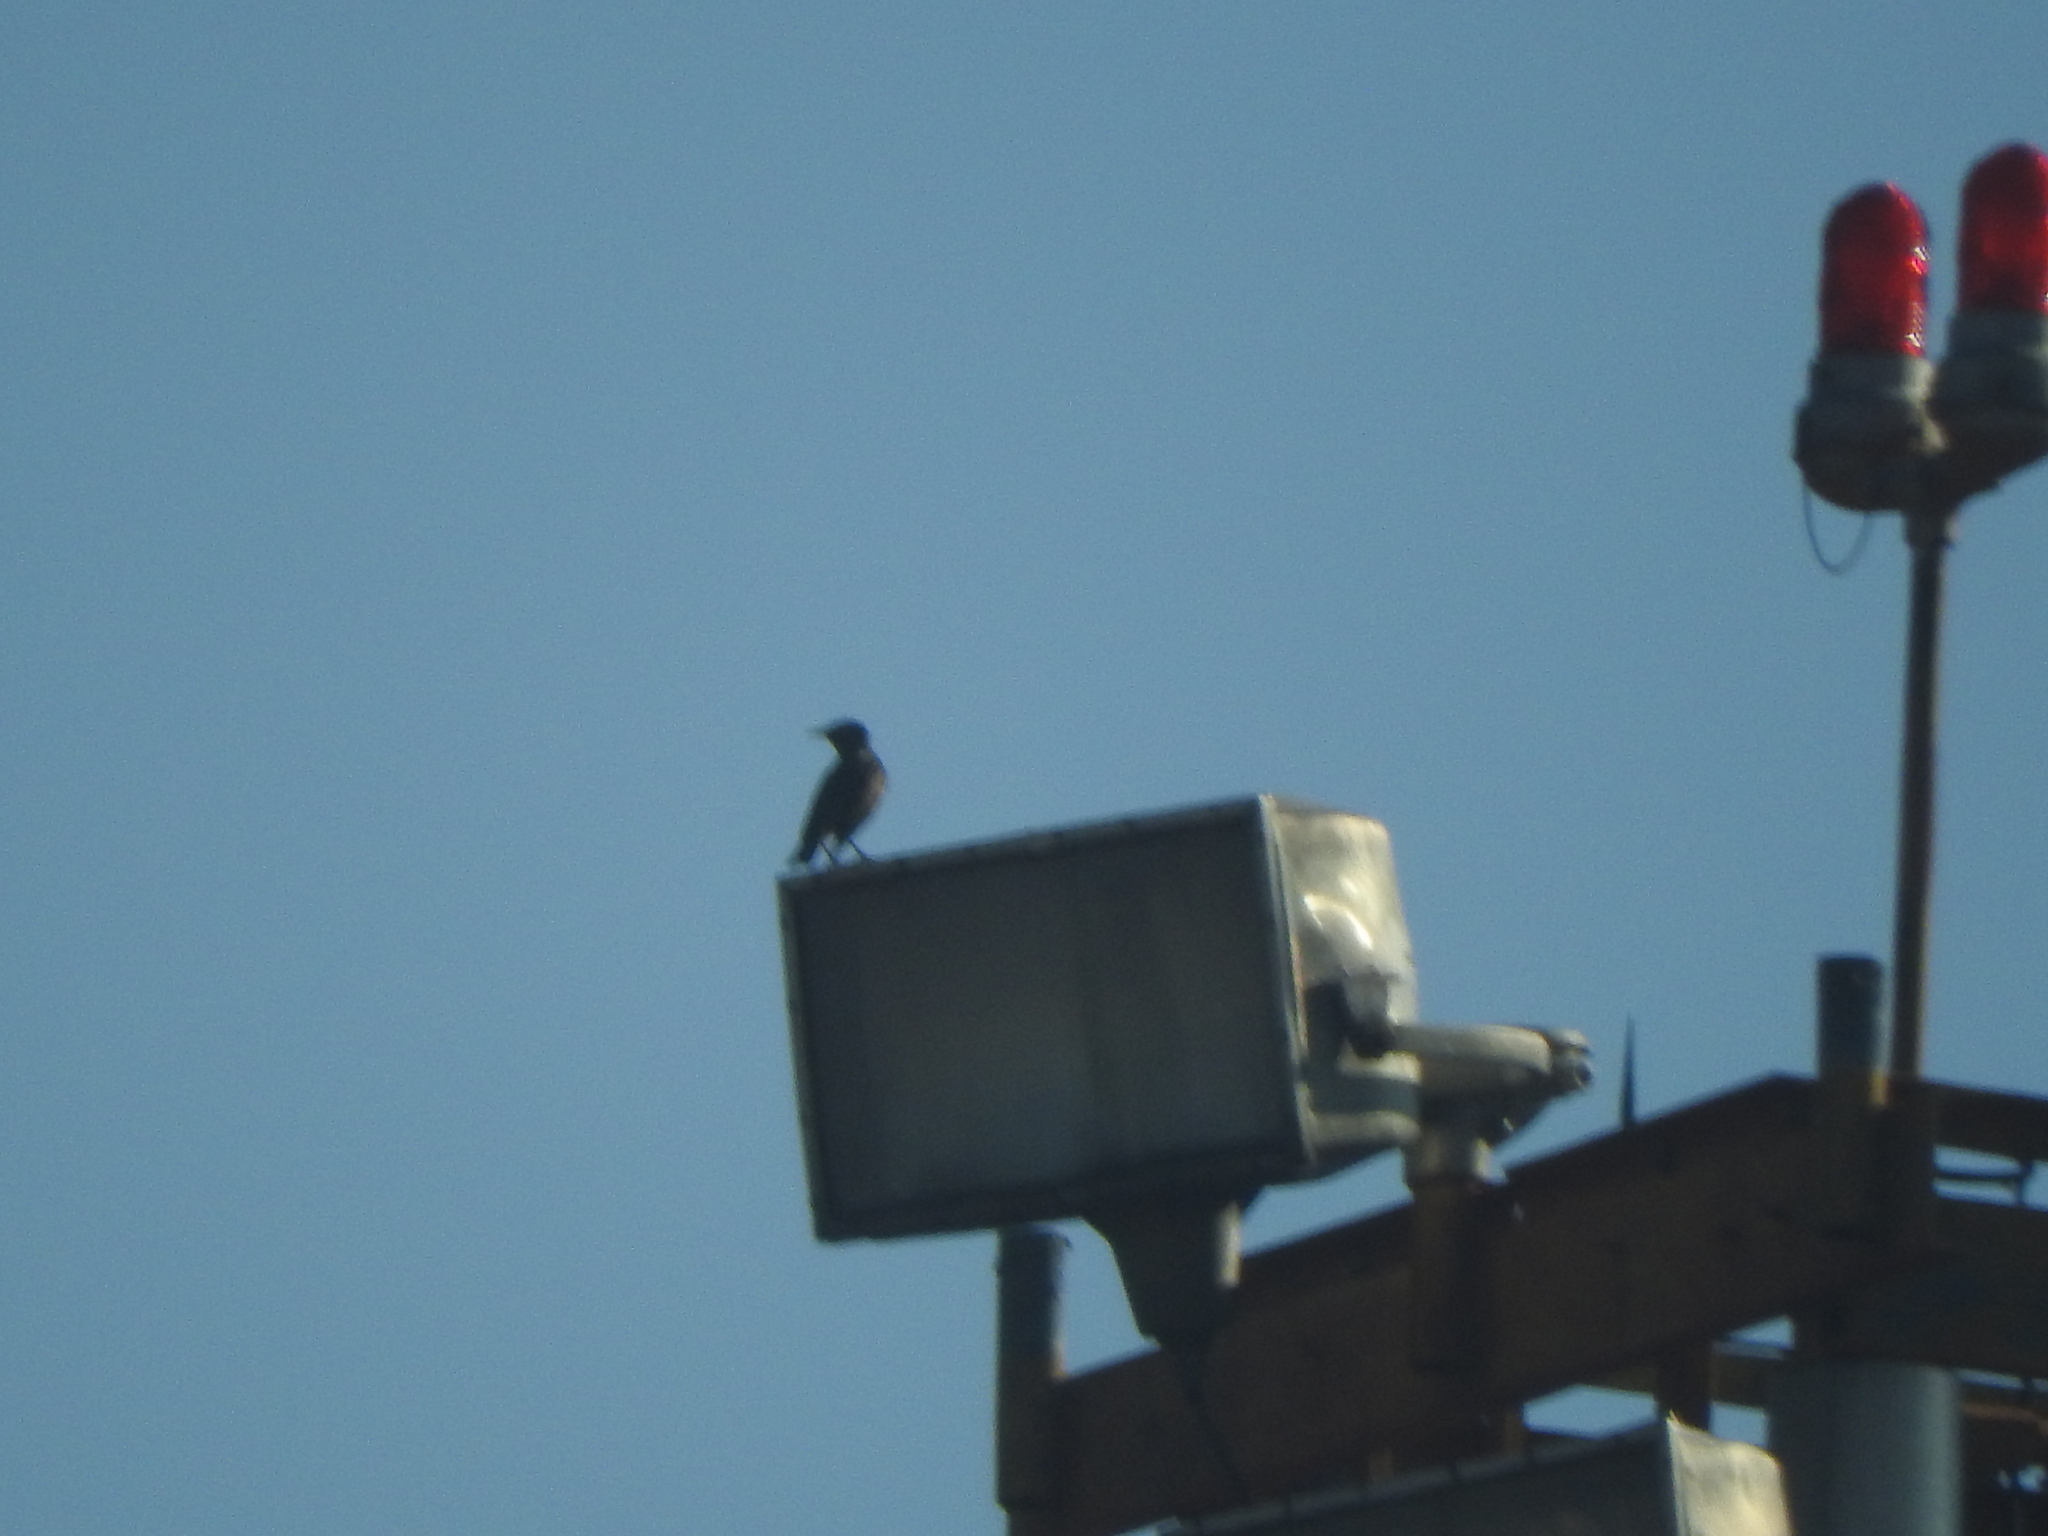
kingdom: Animalia
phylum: Chordata
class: Aves
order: Passeriformes
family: Sturnidae
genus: Sturnus
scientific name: Sturnus vulgaris
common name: Common starling
